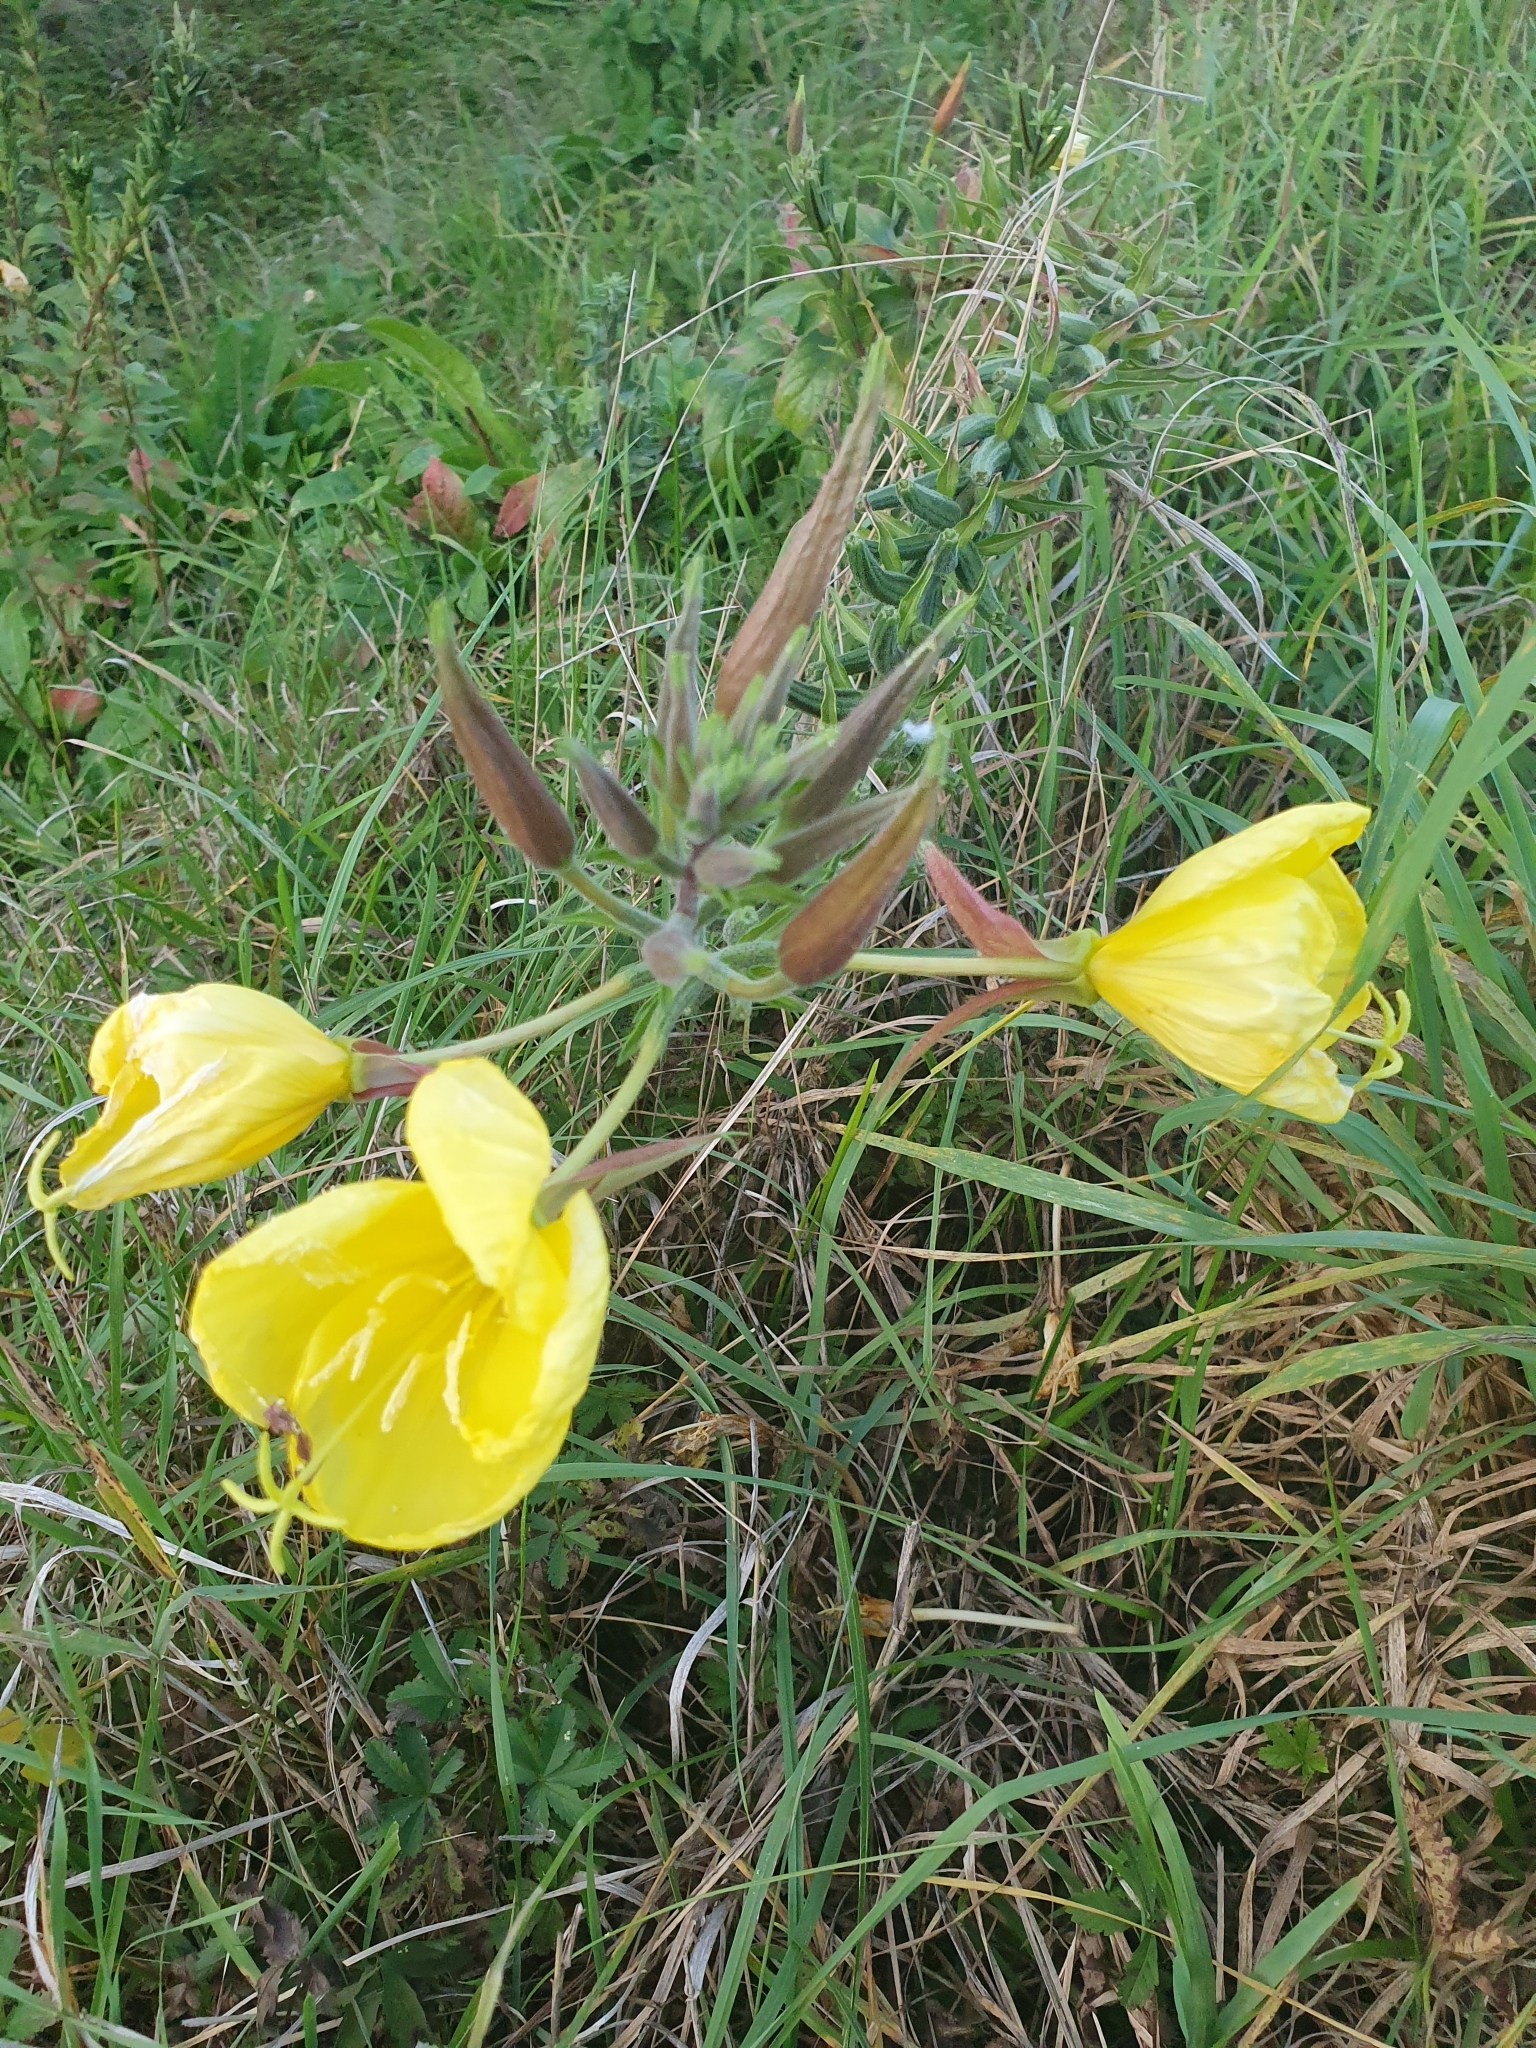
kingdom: Plantae
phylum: Tracheophyta
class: Magnoliopsida
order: Myrtales
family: Onagraceae
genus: Oenothera
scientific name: Oenothera glazioviana
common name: Large-flowered evening-primrose
